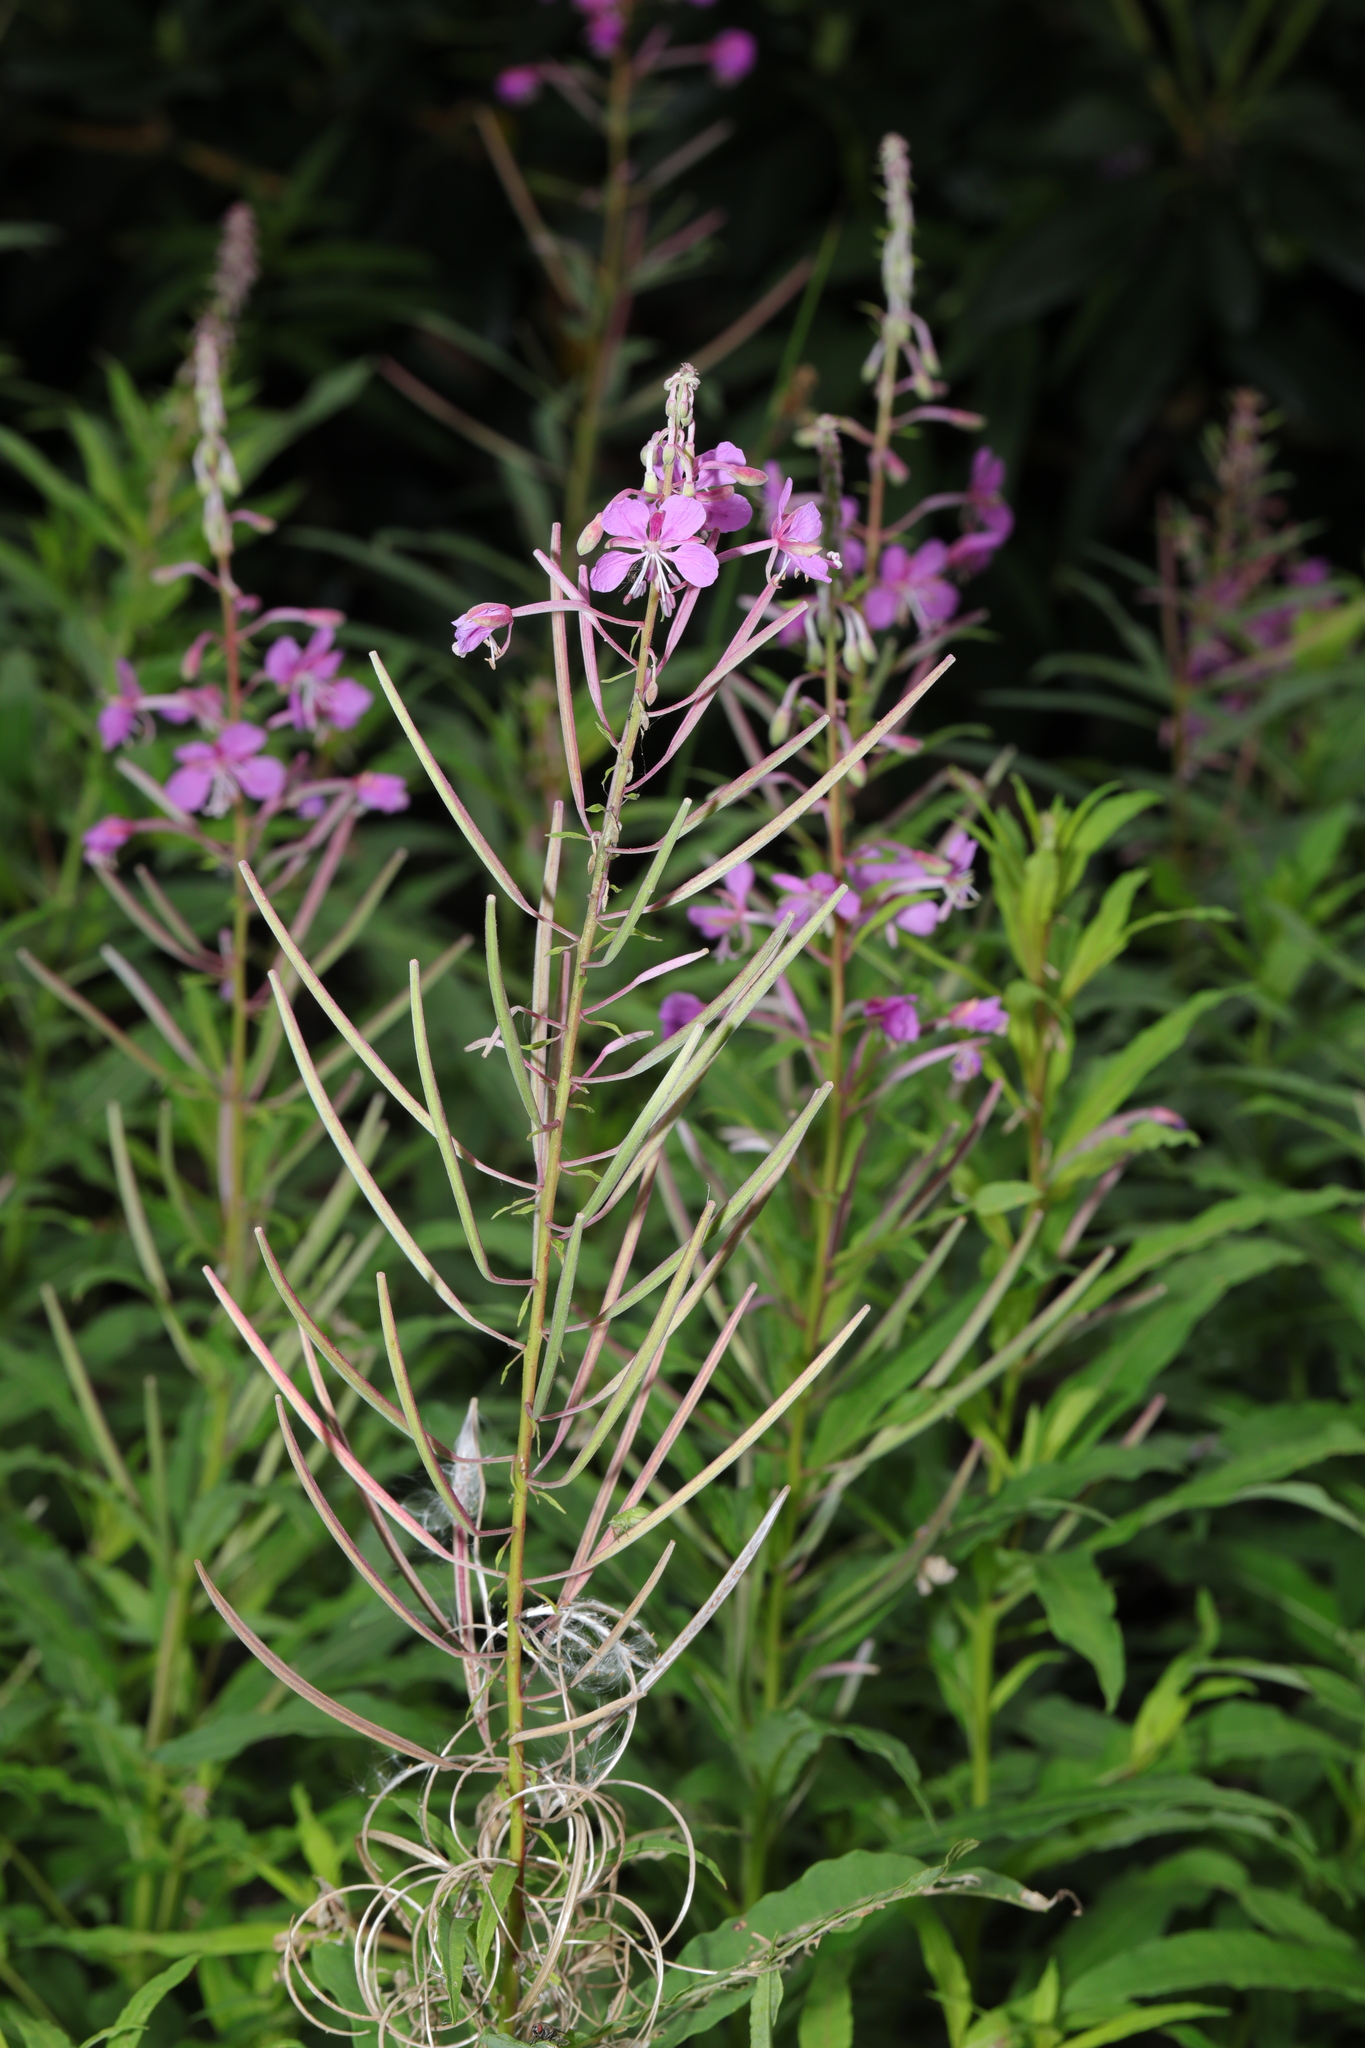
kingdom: Plantae
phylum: Tracheophyta
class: Magnoliopsida
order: Myrtales
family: Onagraceae
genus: Chamaenerion
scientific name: Chamaenerion angustifolium
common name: Fireweed
